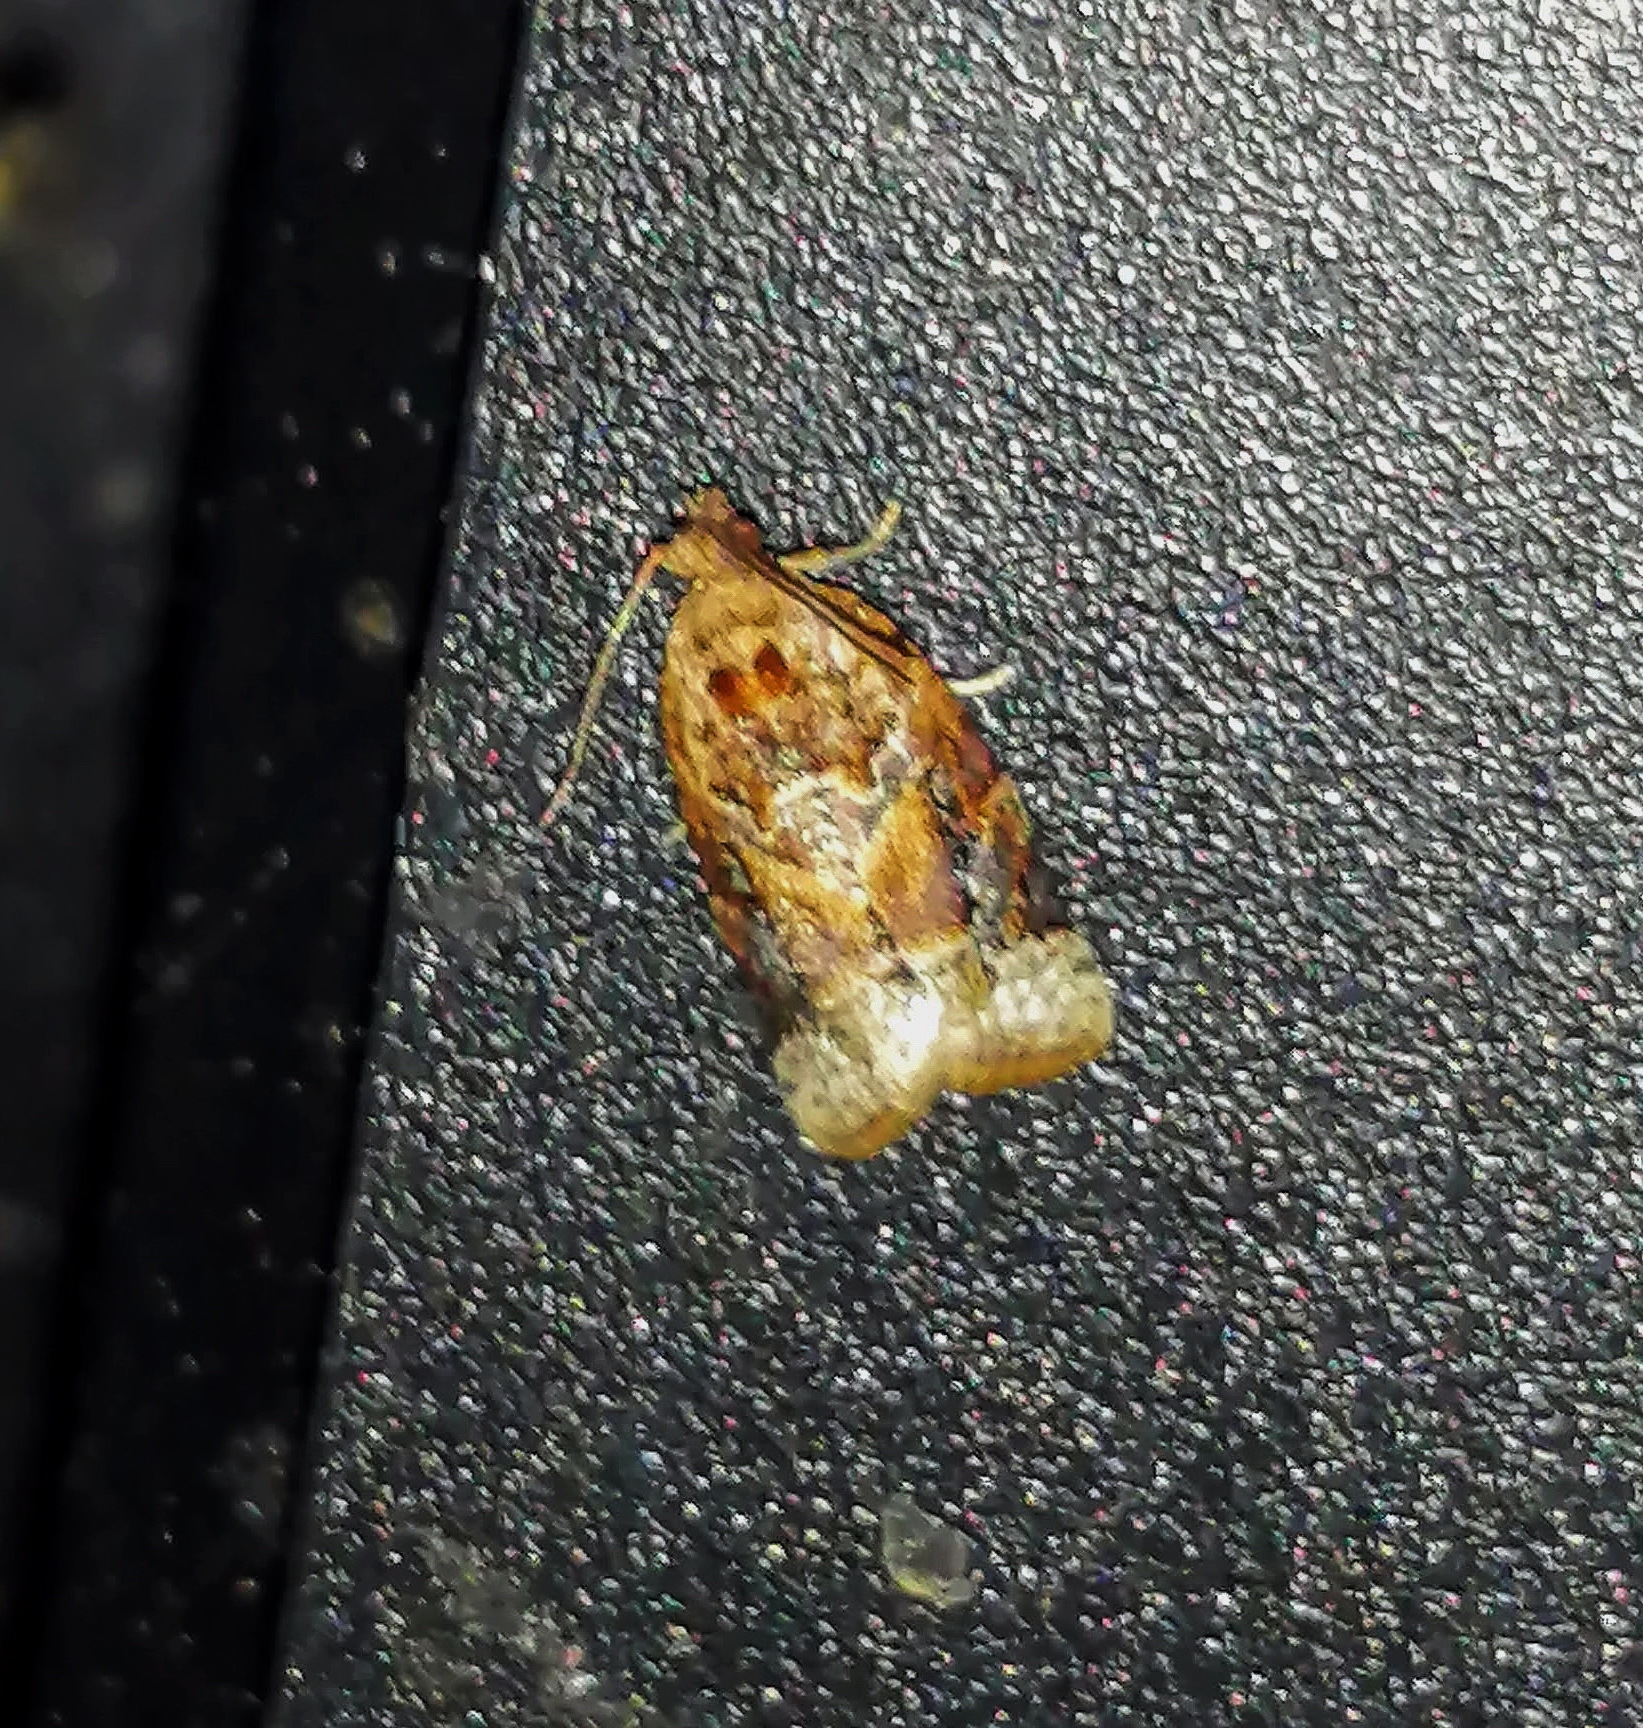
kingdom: Animalia
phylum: Arthropoda
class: Insecta
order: Lepidoptera
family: Tortricidae
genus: Argyrotaenia
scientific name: Argyrotaenia velutinana
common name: Red-banded leafroller moth
